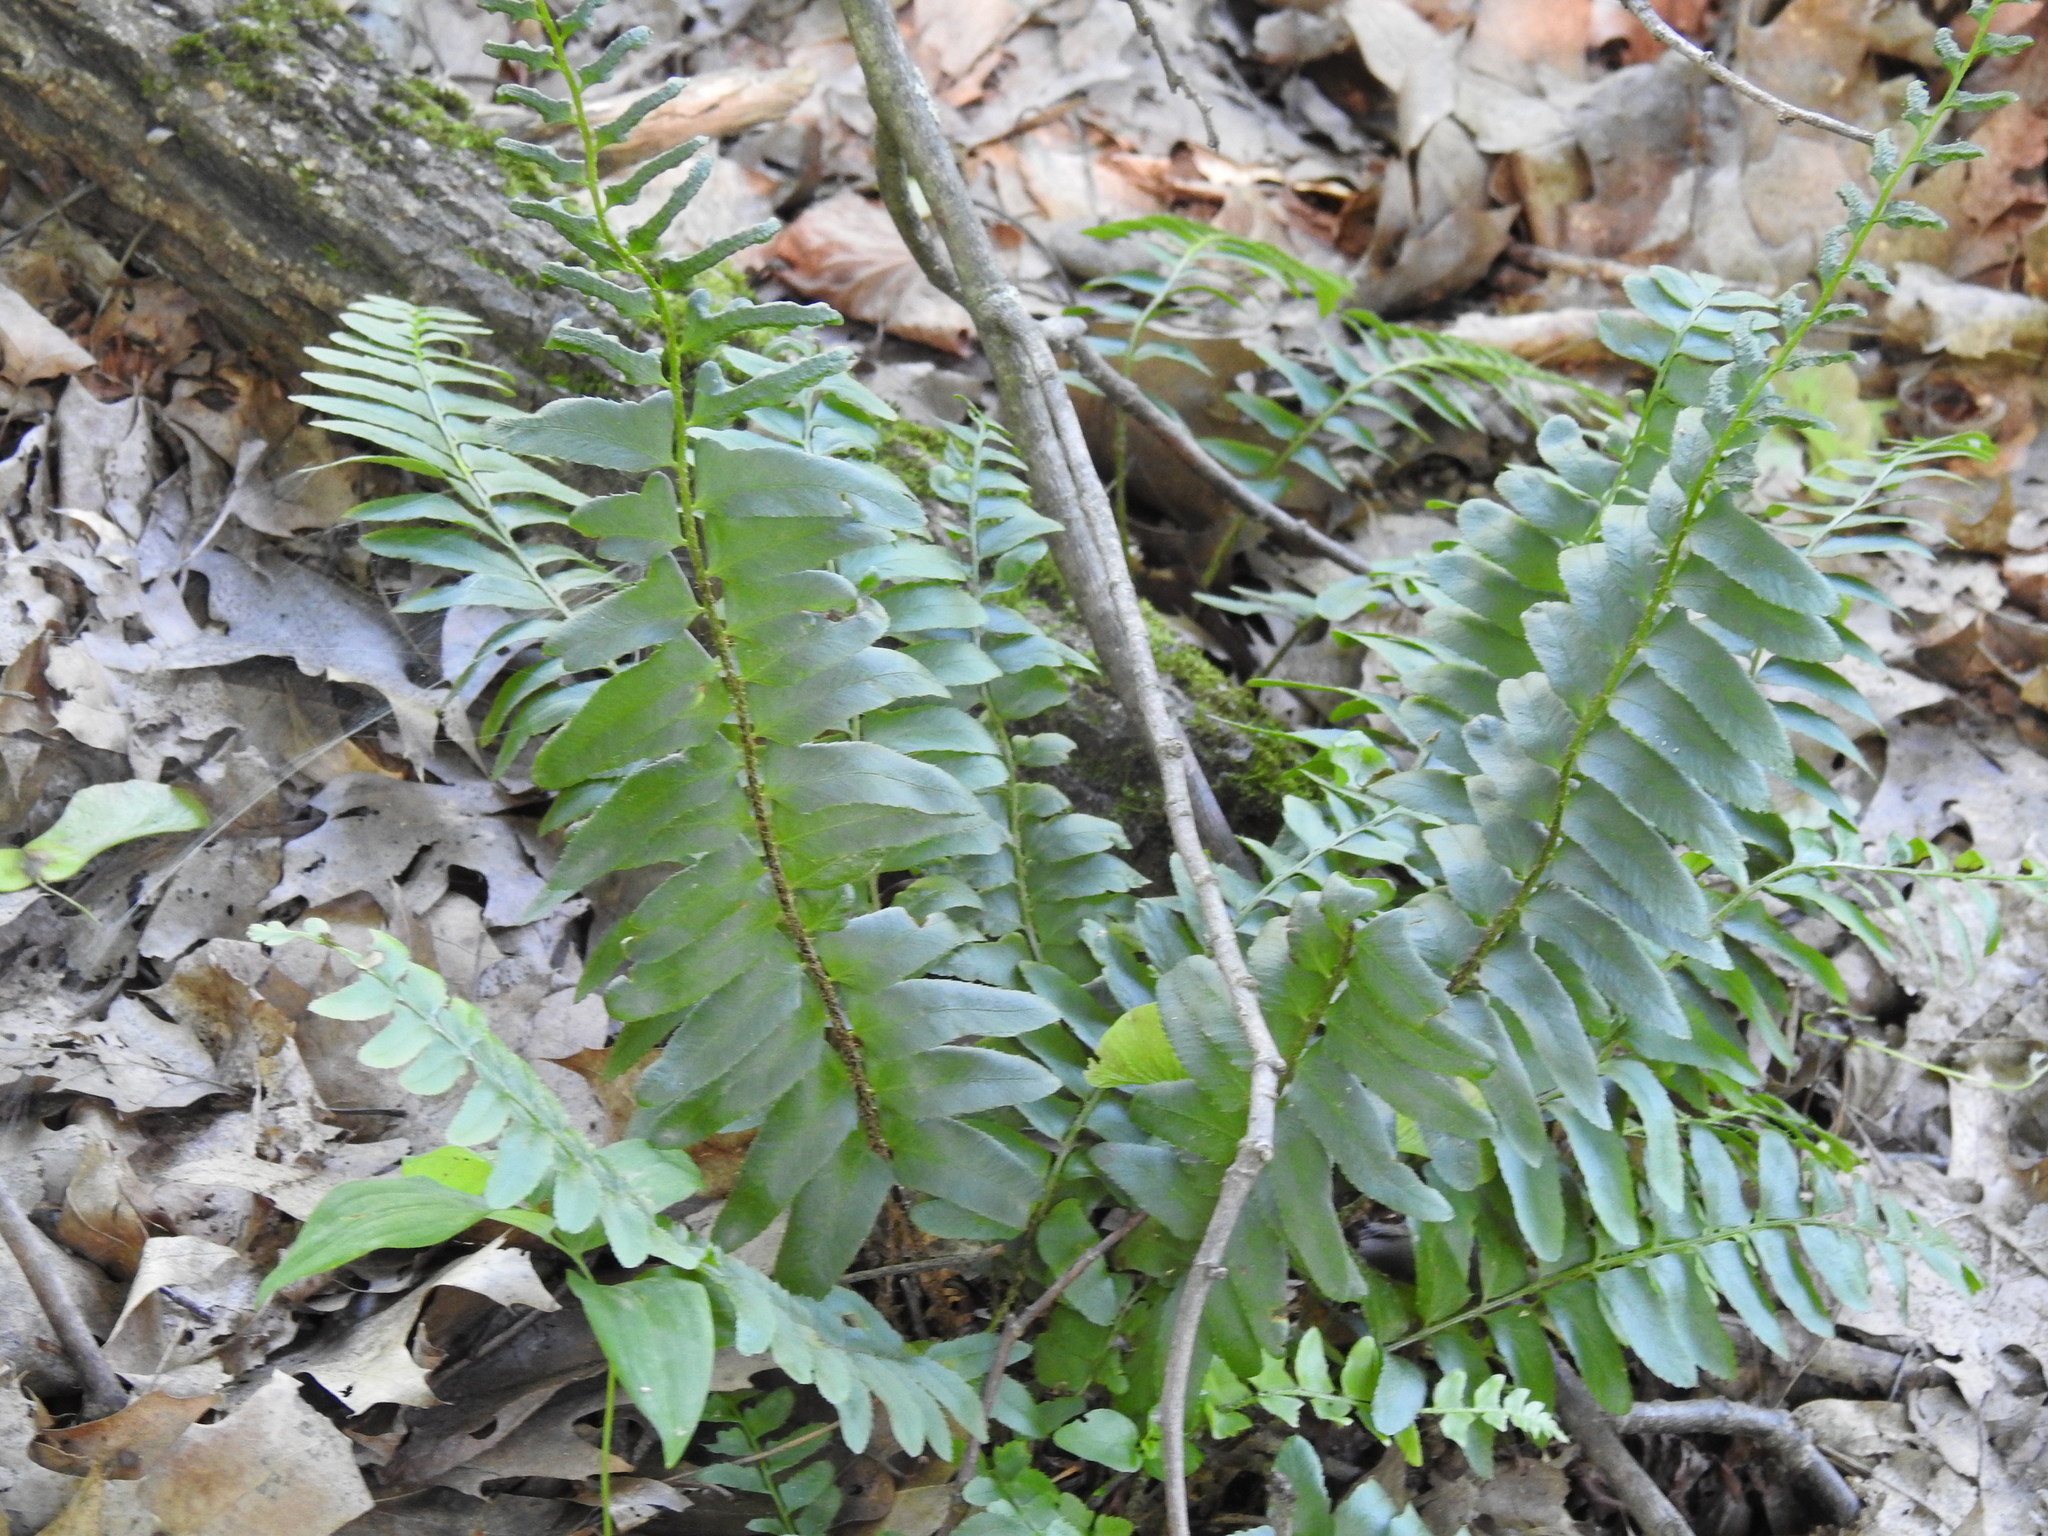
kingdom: Plantae
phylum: Tracheophyta
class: Polypodiopsida
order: Polypodiales
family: Dryopteridaceae
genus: Polystichum
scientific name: Polystichum acrostichoides
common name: Christmas fern
